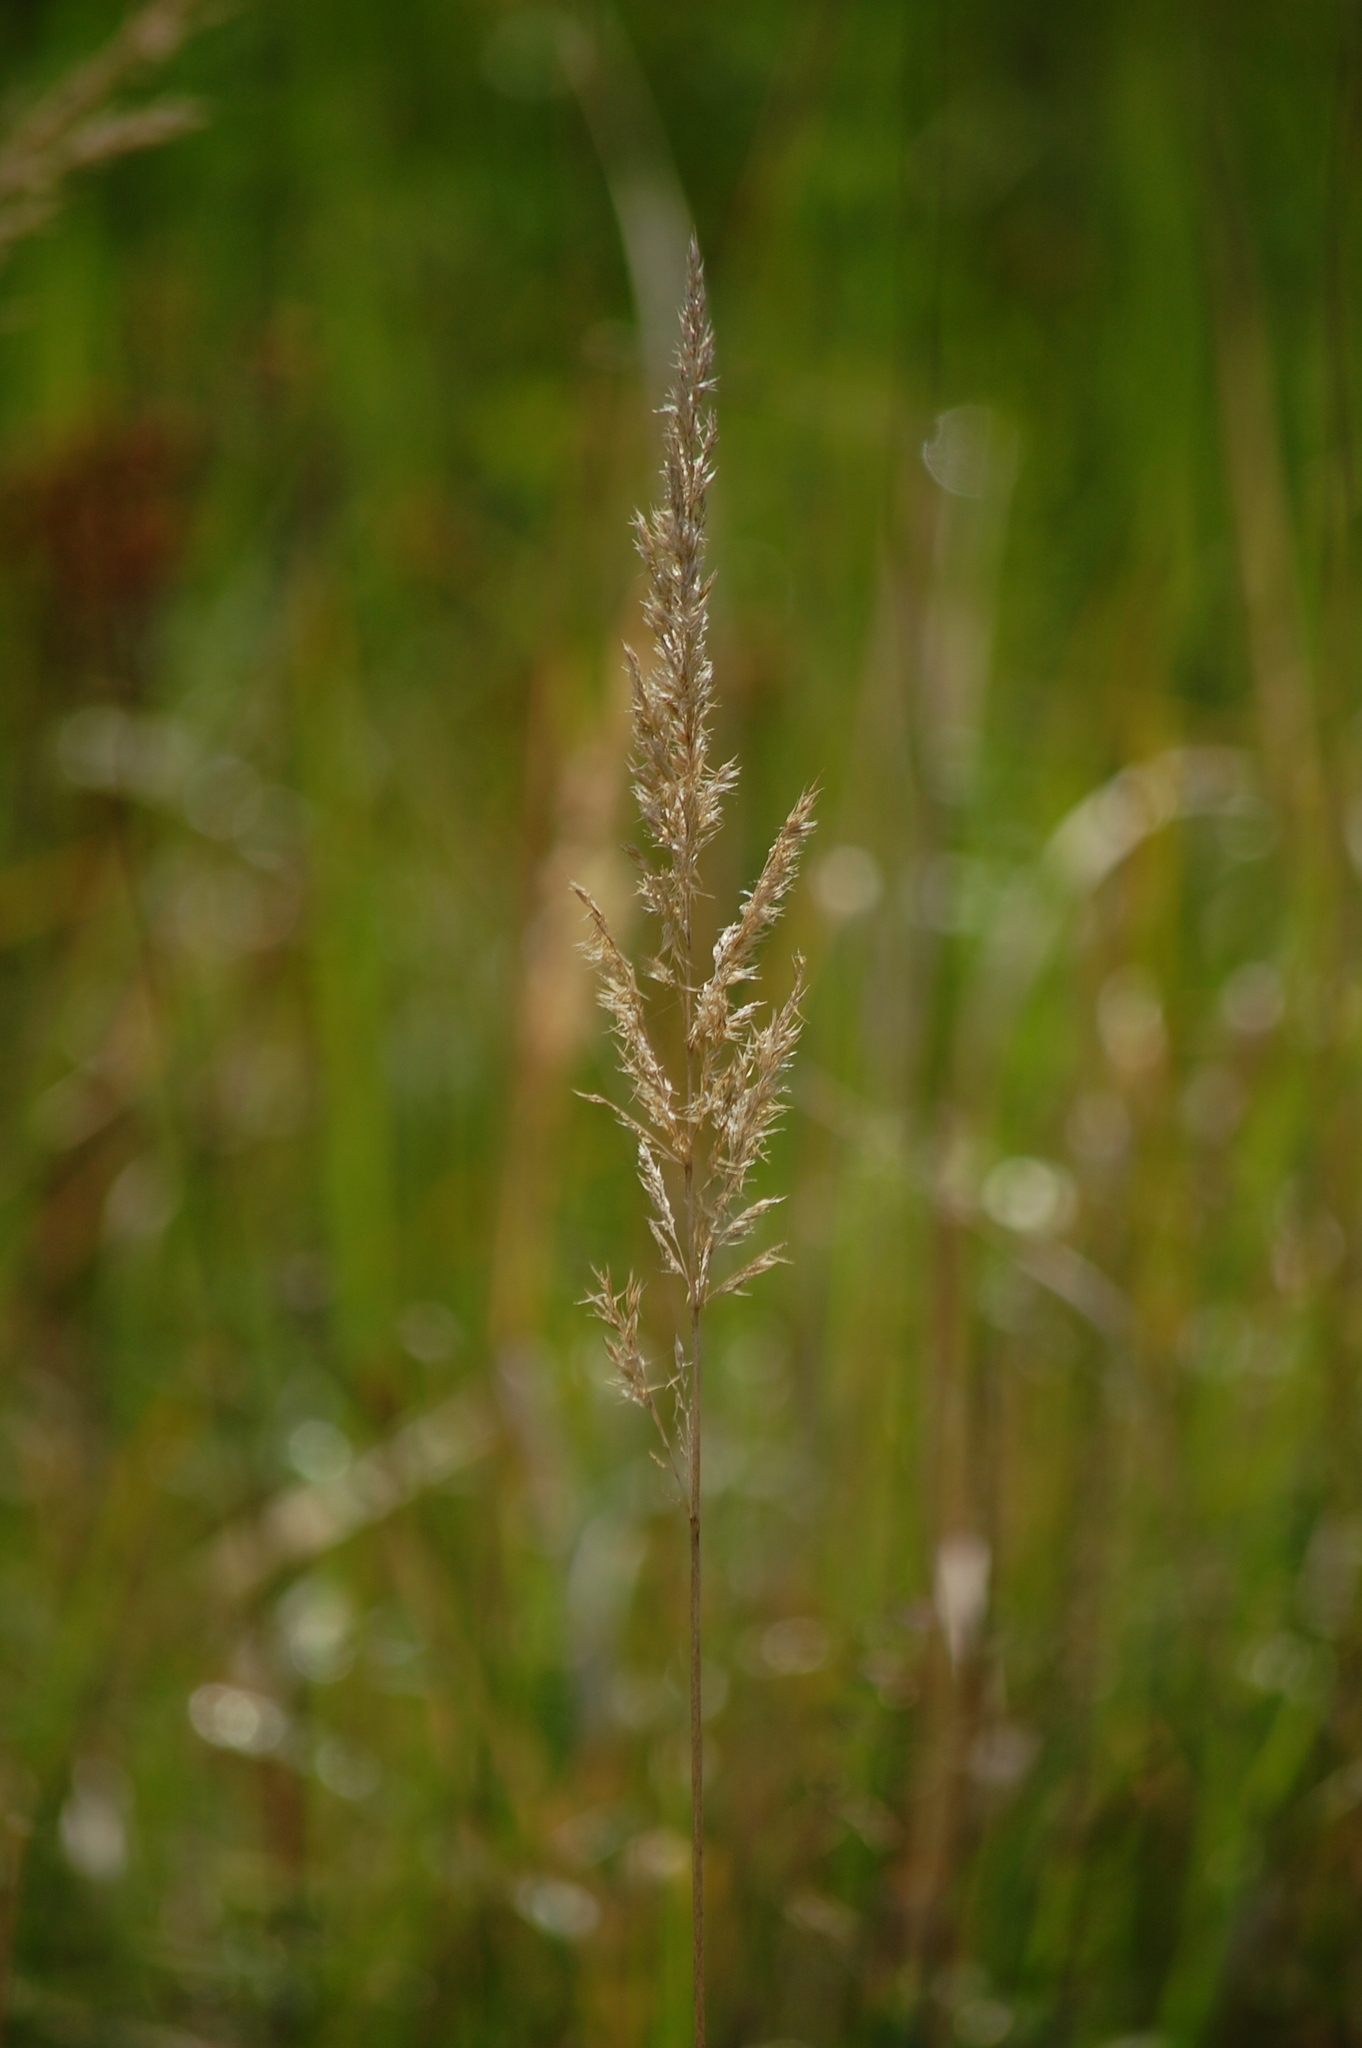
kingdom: Plantae
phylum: Tracheophyta
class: Liliopsida
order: Poales
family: Poaceae
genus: Calamagrostis
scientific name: Calamagrostis epigejos
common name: Wood small-reed
